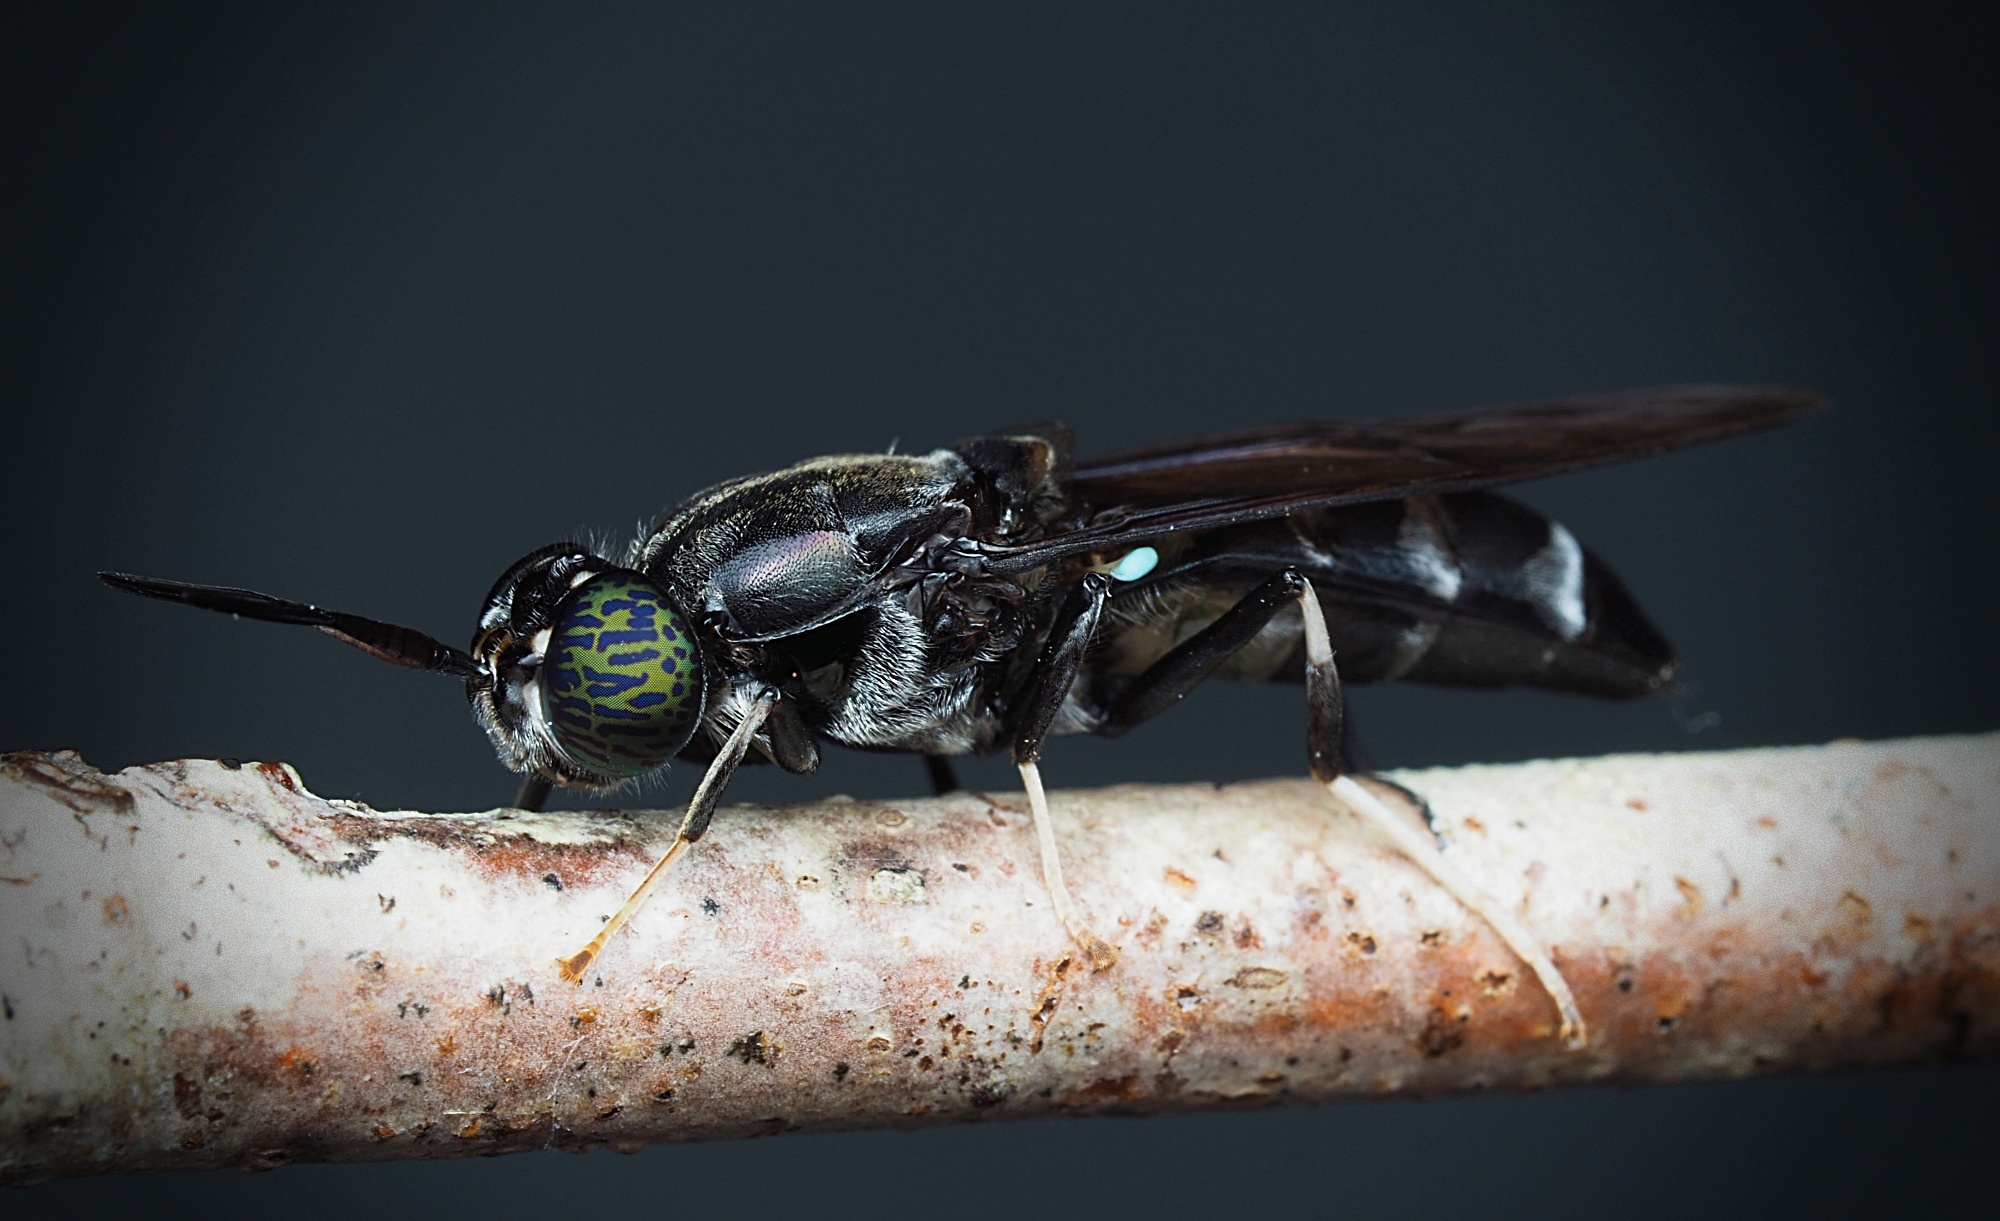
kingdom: Animalia
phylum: Arthropoda
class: Insecta
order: Diptera
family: Stratiomyidae
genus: Hermetia
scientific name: Hermetia illucens
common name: Black soldier fly
